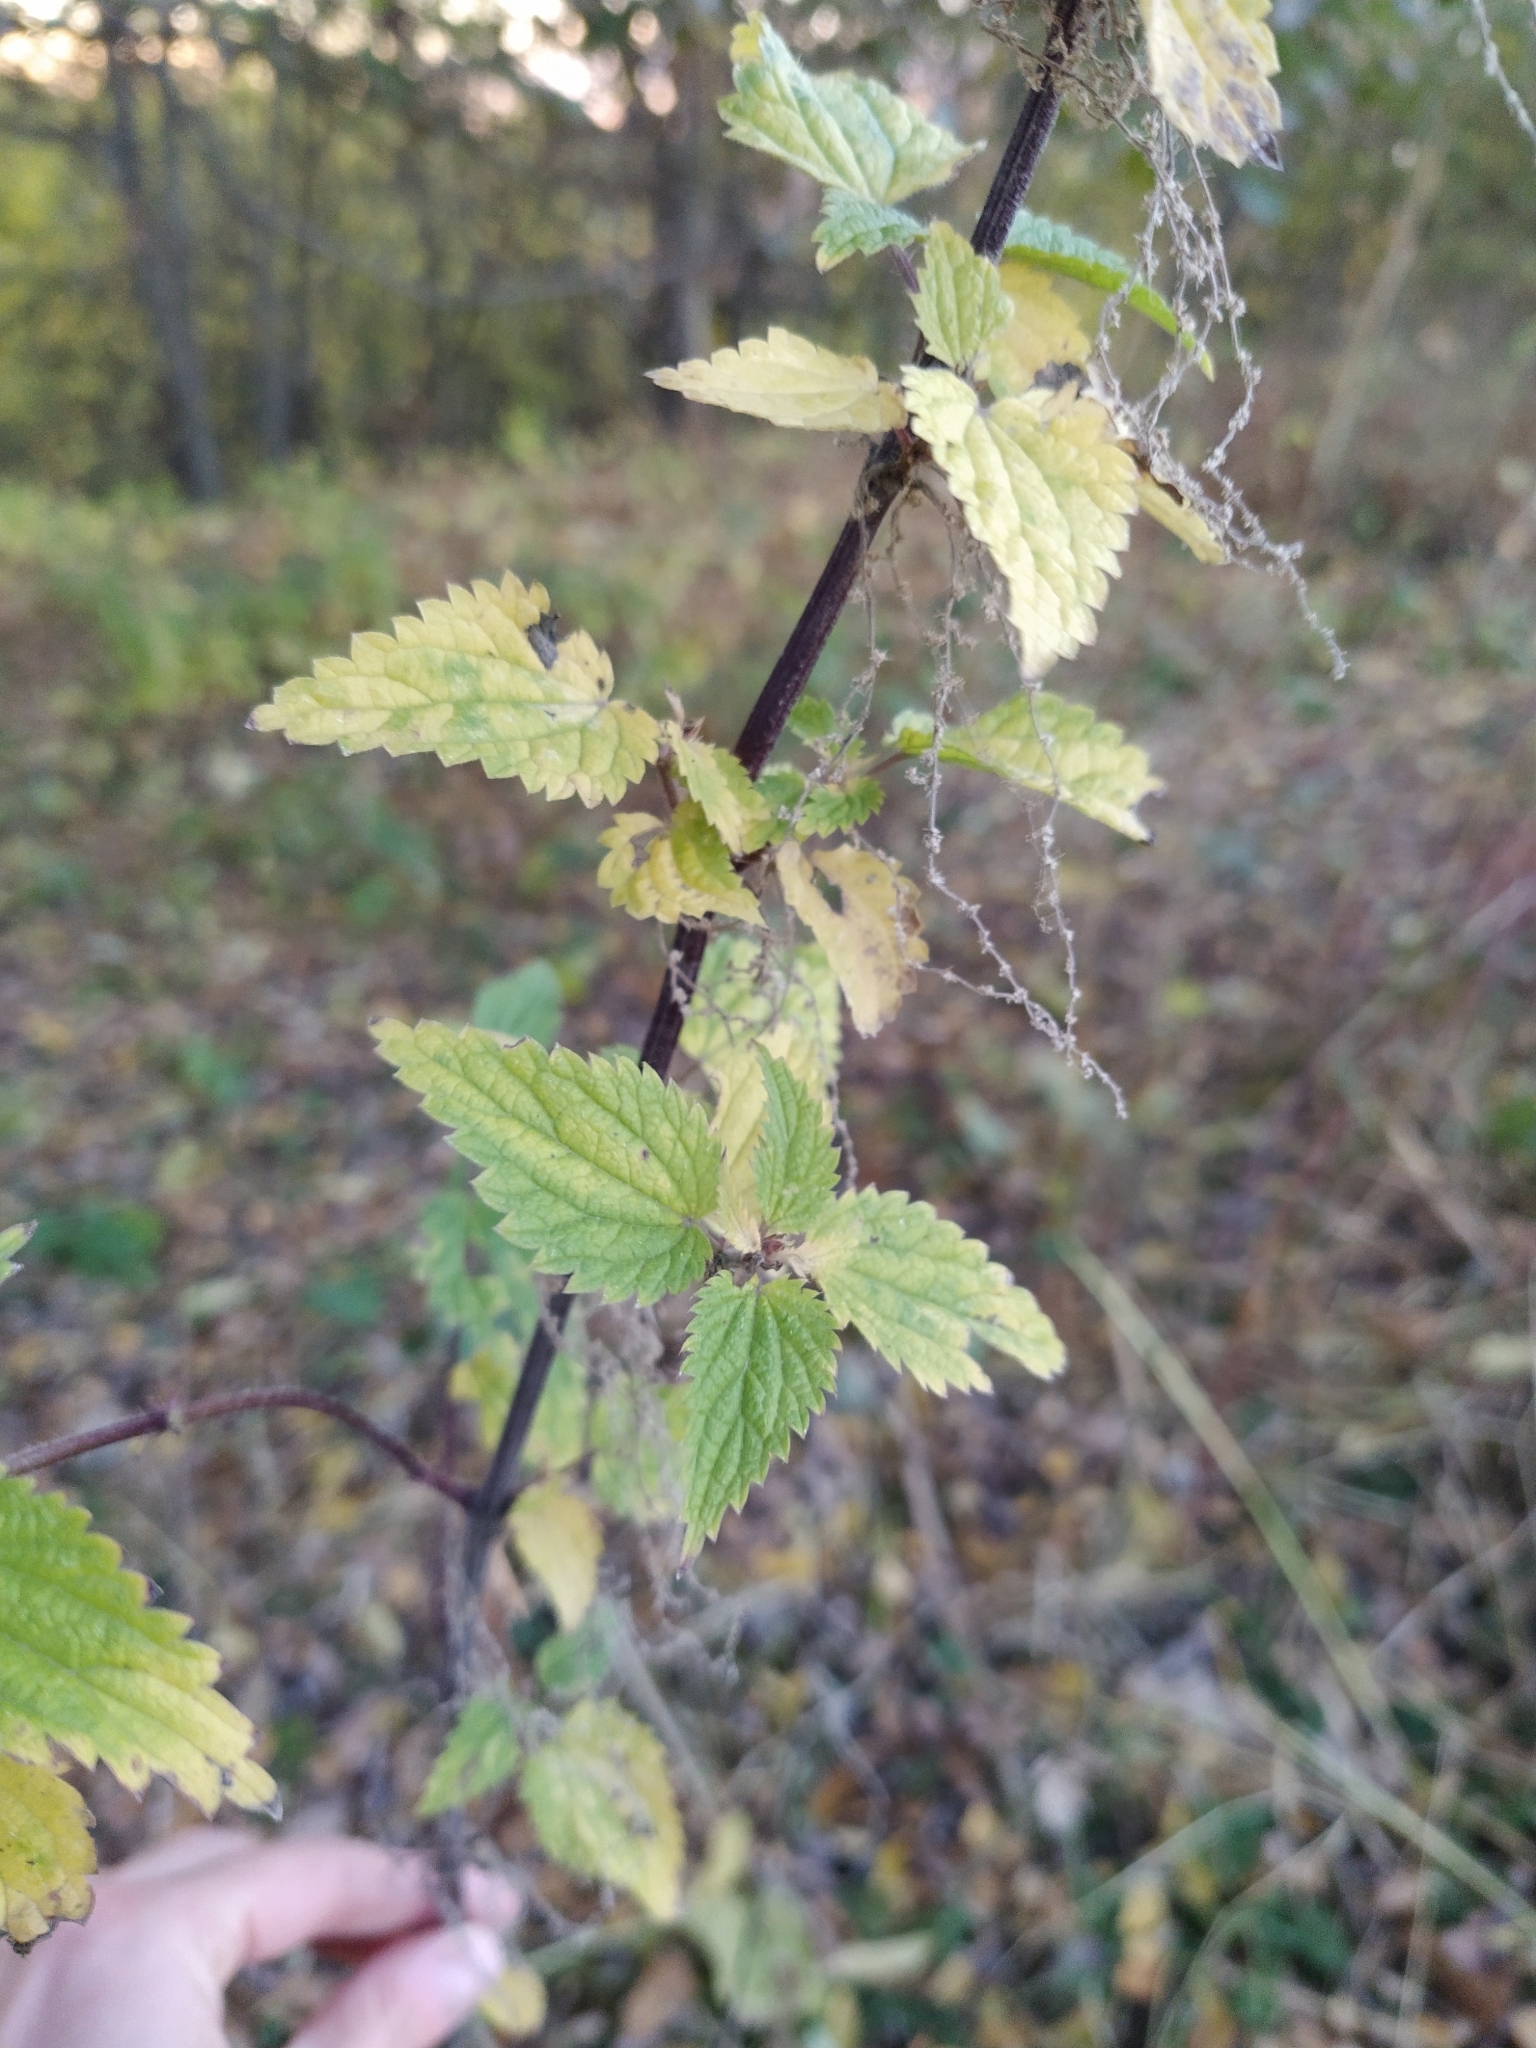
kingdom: Plantae
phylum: Tracheophyta
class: Magnoliopsida
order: Rosales
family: Urticaceae
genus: Urtica
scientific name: Urtica dioica
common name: Common nettle
